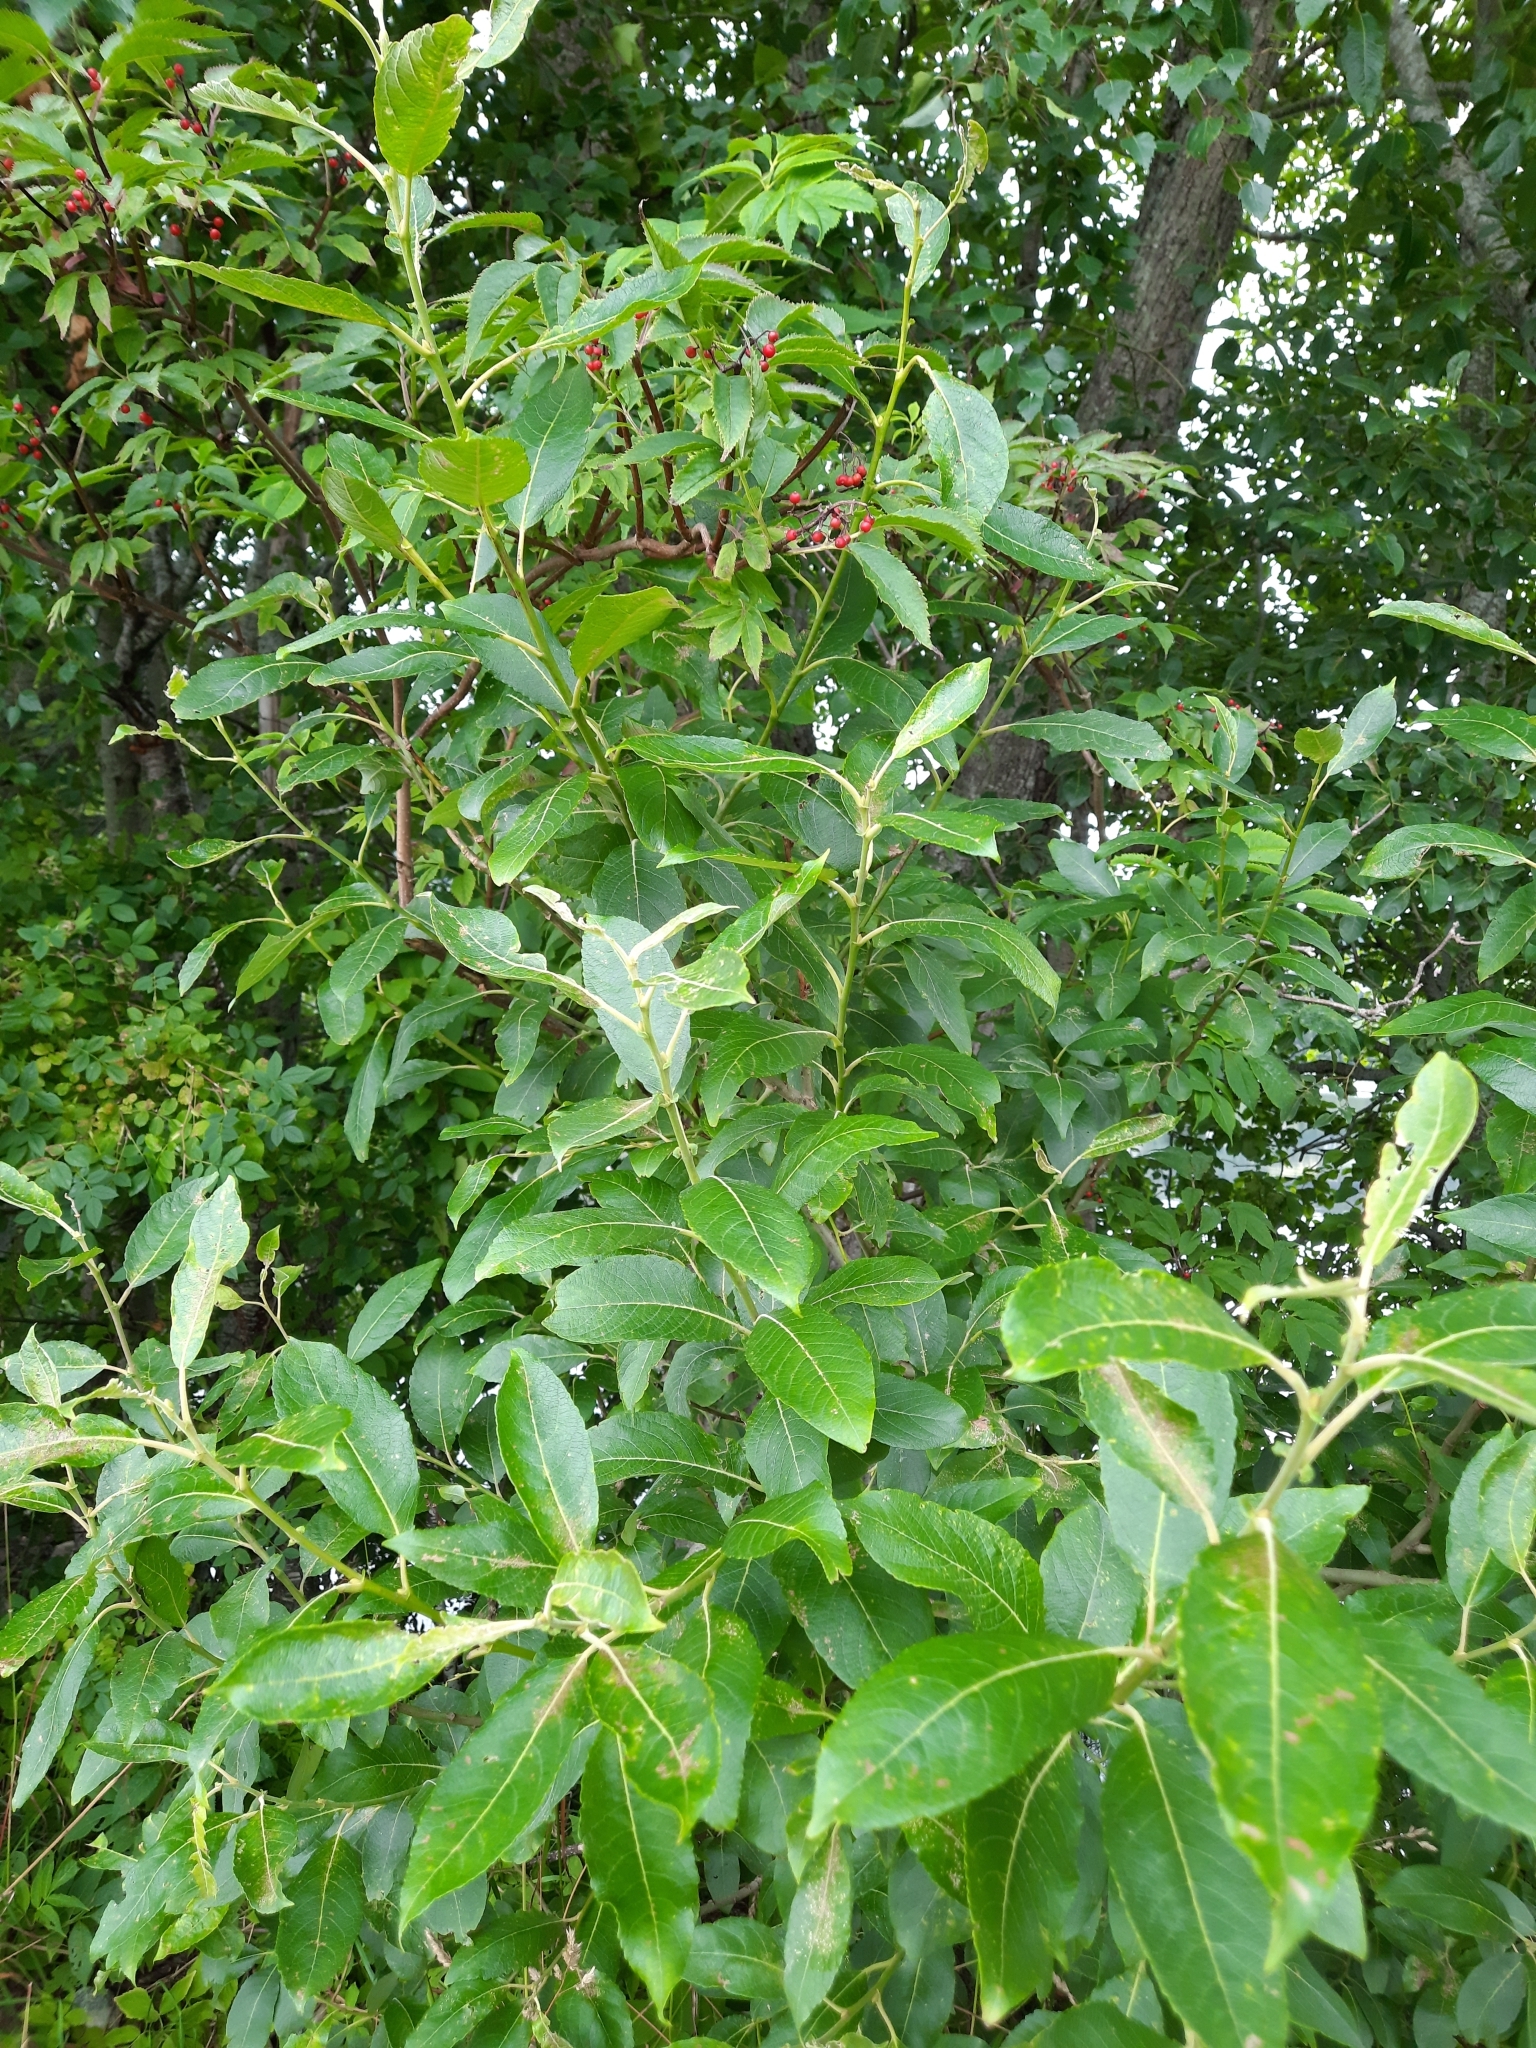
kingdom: Plantae
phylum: Tracheophyta
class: Magnoliopsida
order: Dipsacales
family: Viburnaceae
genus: Sambucus
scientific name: Sambucus racemosa
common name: Red-berried elder
